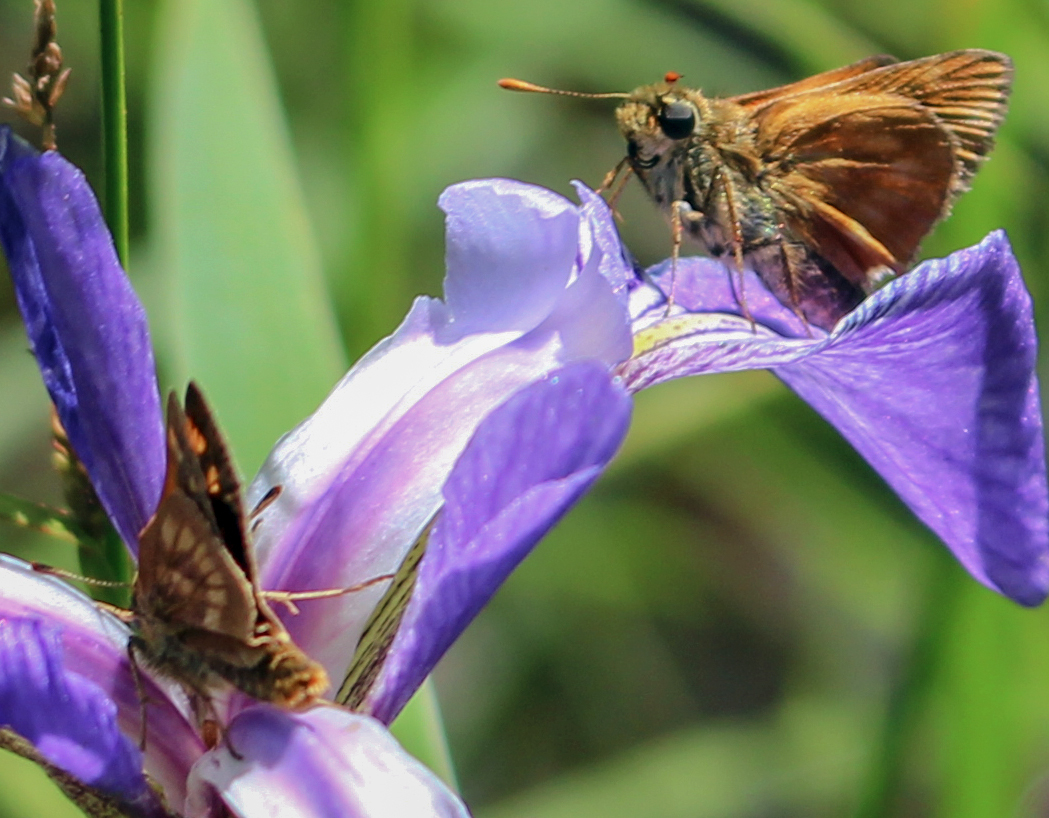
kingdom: Animalia
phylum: Arthropoda
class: Insecta
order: Lepidoptera
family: Hesperiidae
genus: Polites
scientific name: Polites mystic
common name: Long dash
